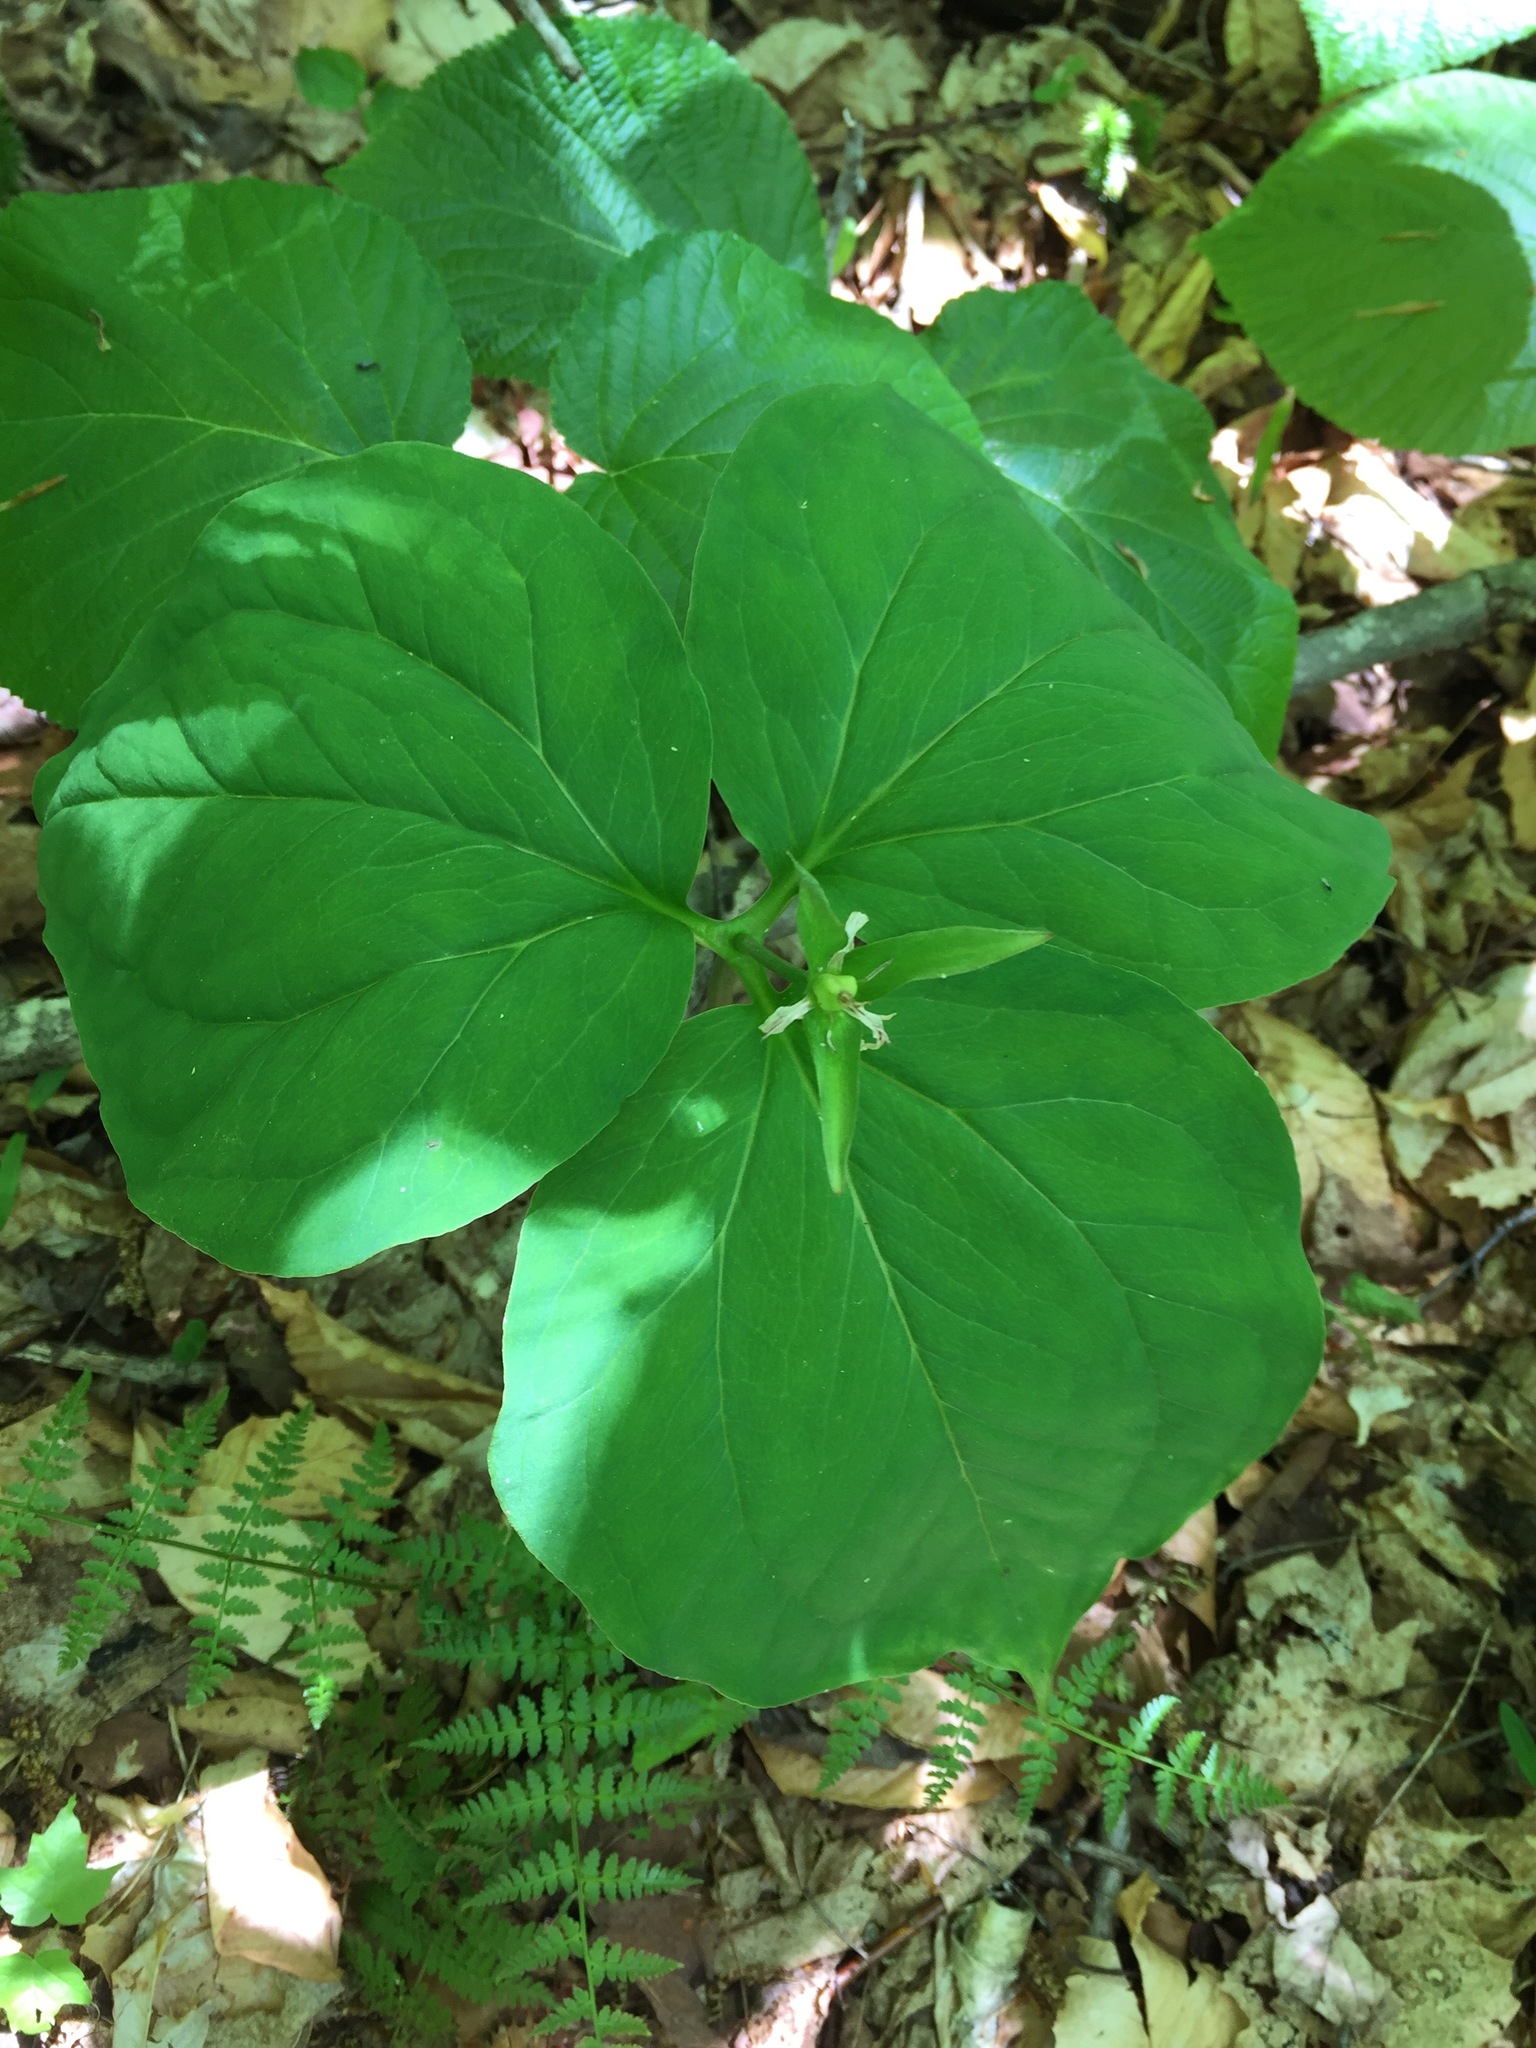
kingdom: Plantae
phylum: Tracheophyta
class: Liliopsida
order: Liliales
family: Melanthiaceae
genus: Trillium
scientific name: Trillium undulatum
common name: Paint trillium
